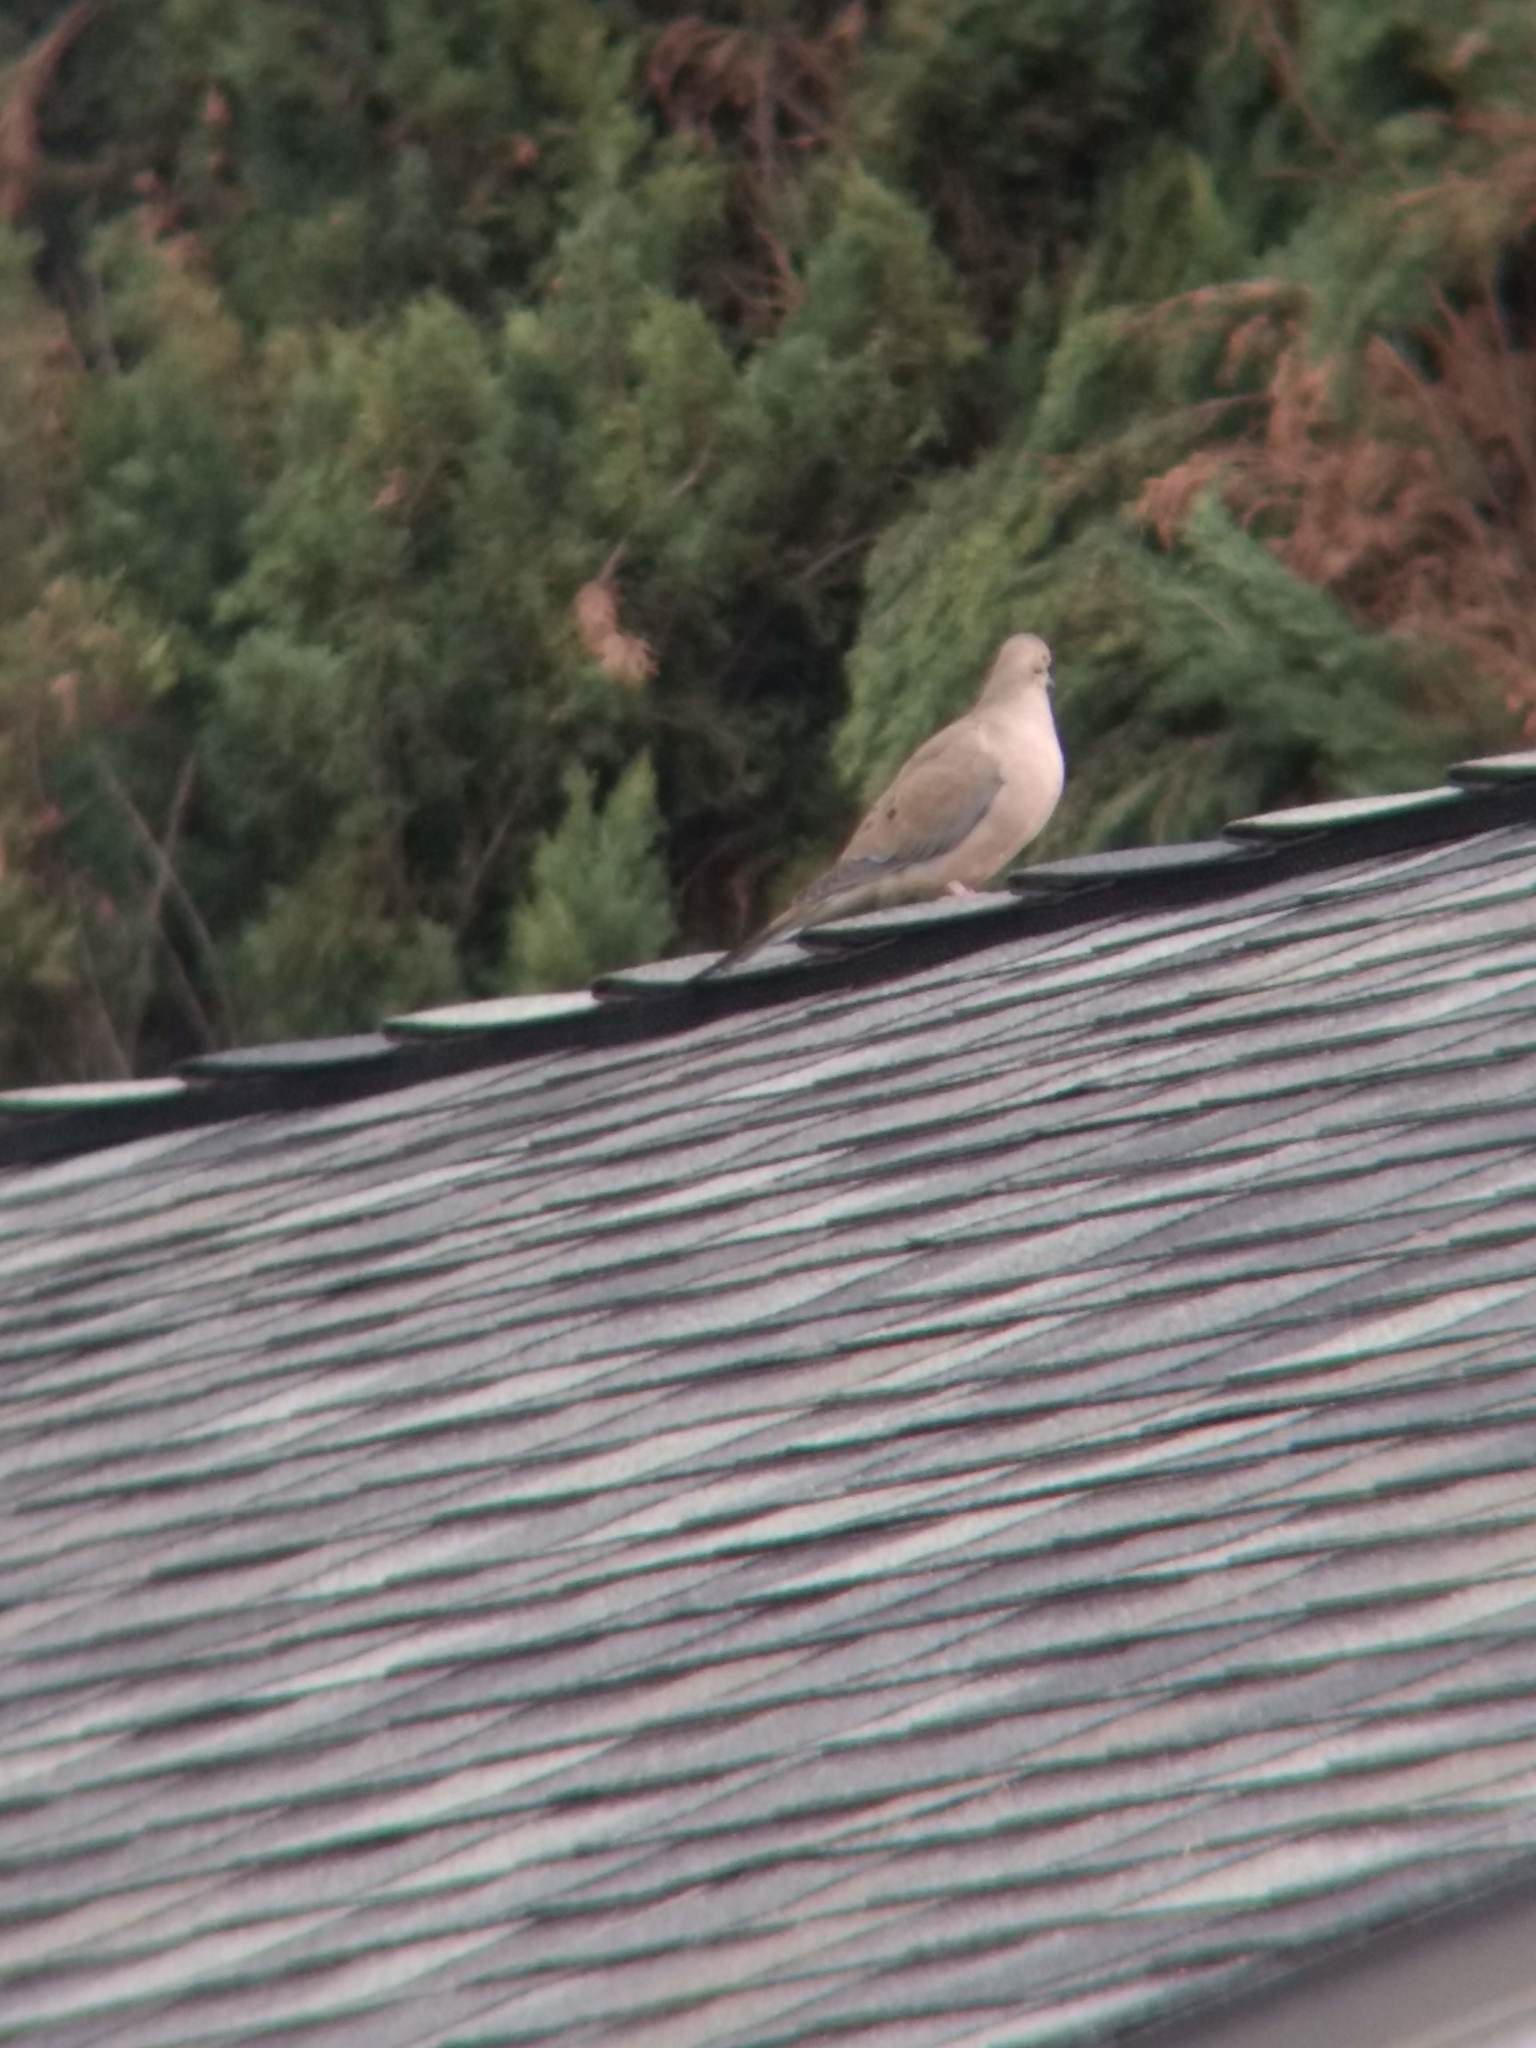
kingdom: Animalia
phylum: Chordata
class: Aves
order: Columbiformes
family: Columbidae
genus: Zenaida
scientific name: Zenaida macroura
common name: Mourning dove
